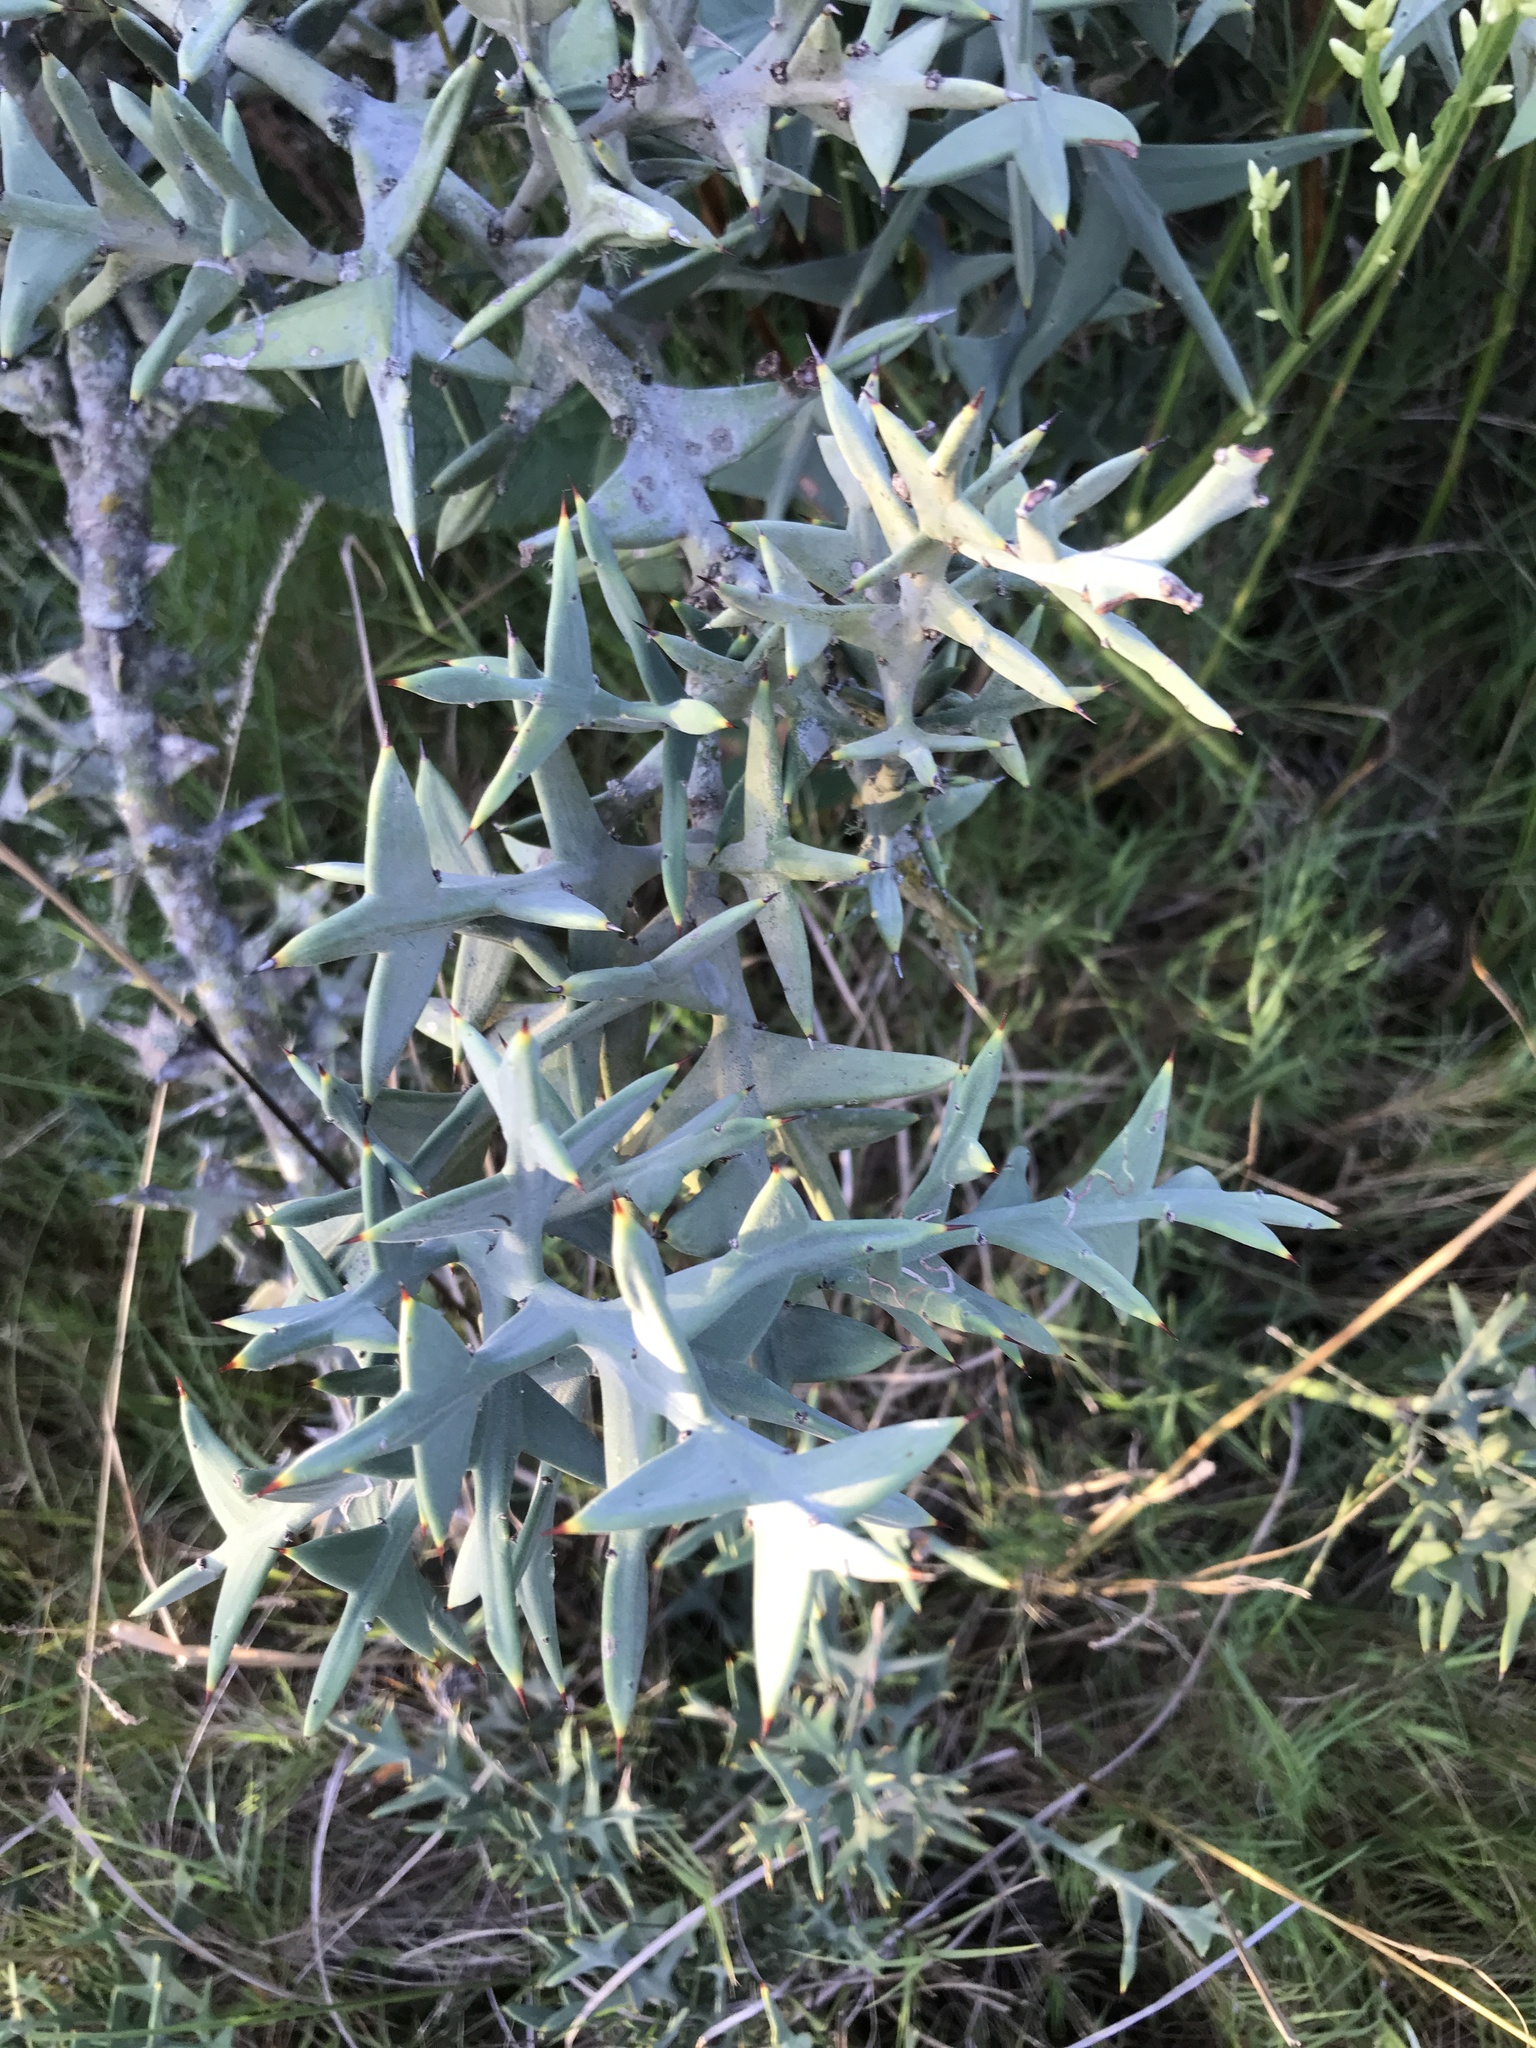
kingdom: Plantae
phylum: Tracheophyta
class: Magnoliopsida
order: Rosales
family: Rhamnaceae
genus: Colletia
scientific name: Colletia paradoxa
